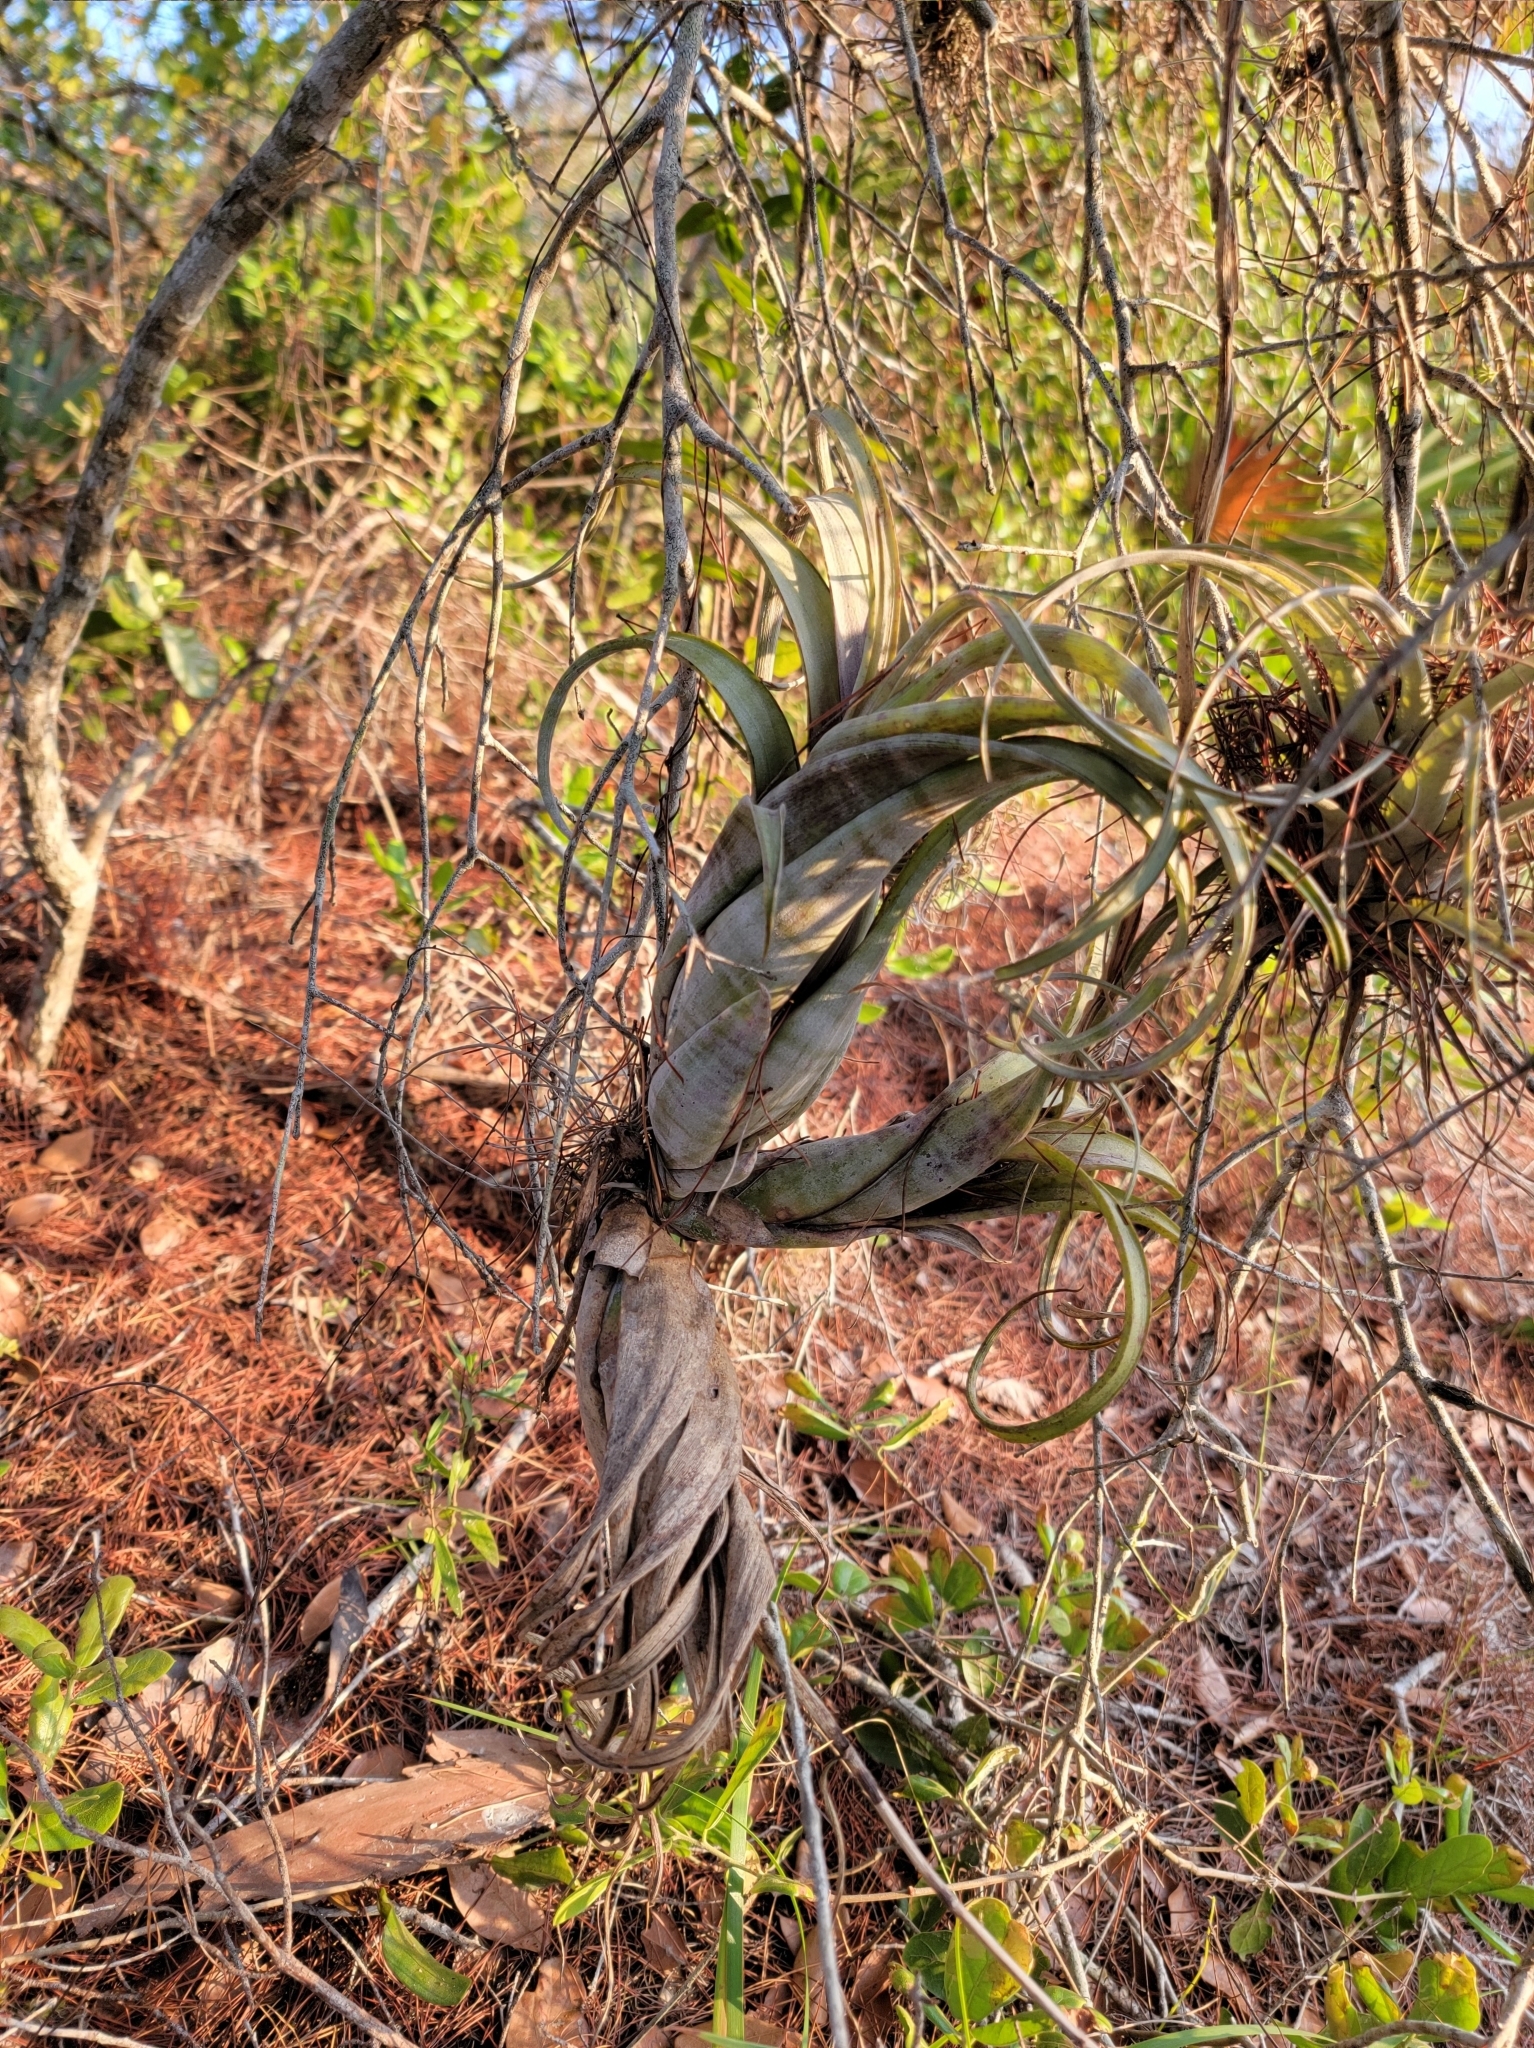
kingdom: Plantae
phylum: Tracheophyta
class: Liliopsida
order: Poales
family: Bromeliaceae
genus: Tillandsia
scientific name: Tillandsia flexuosa
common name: Banded airplant
